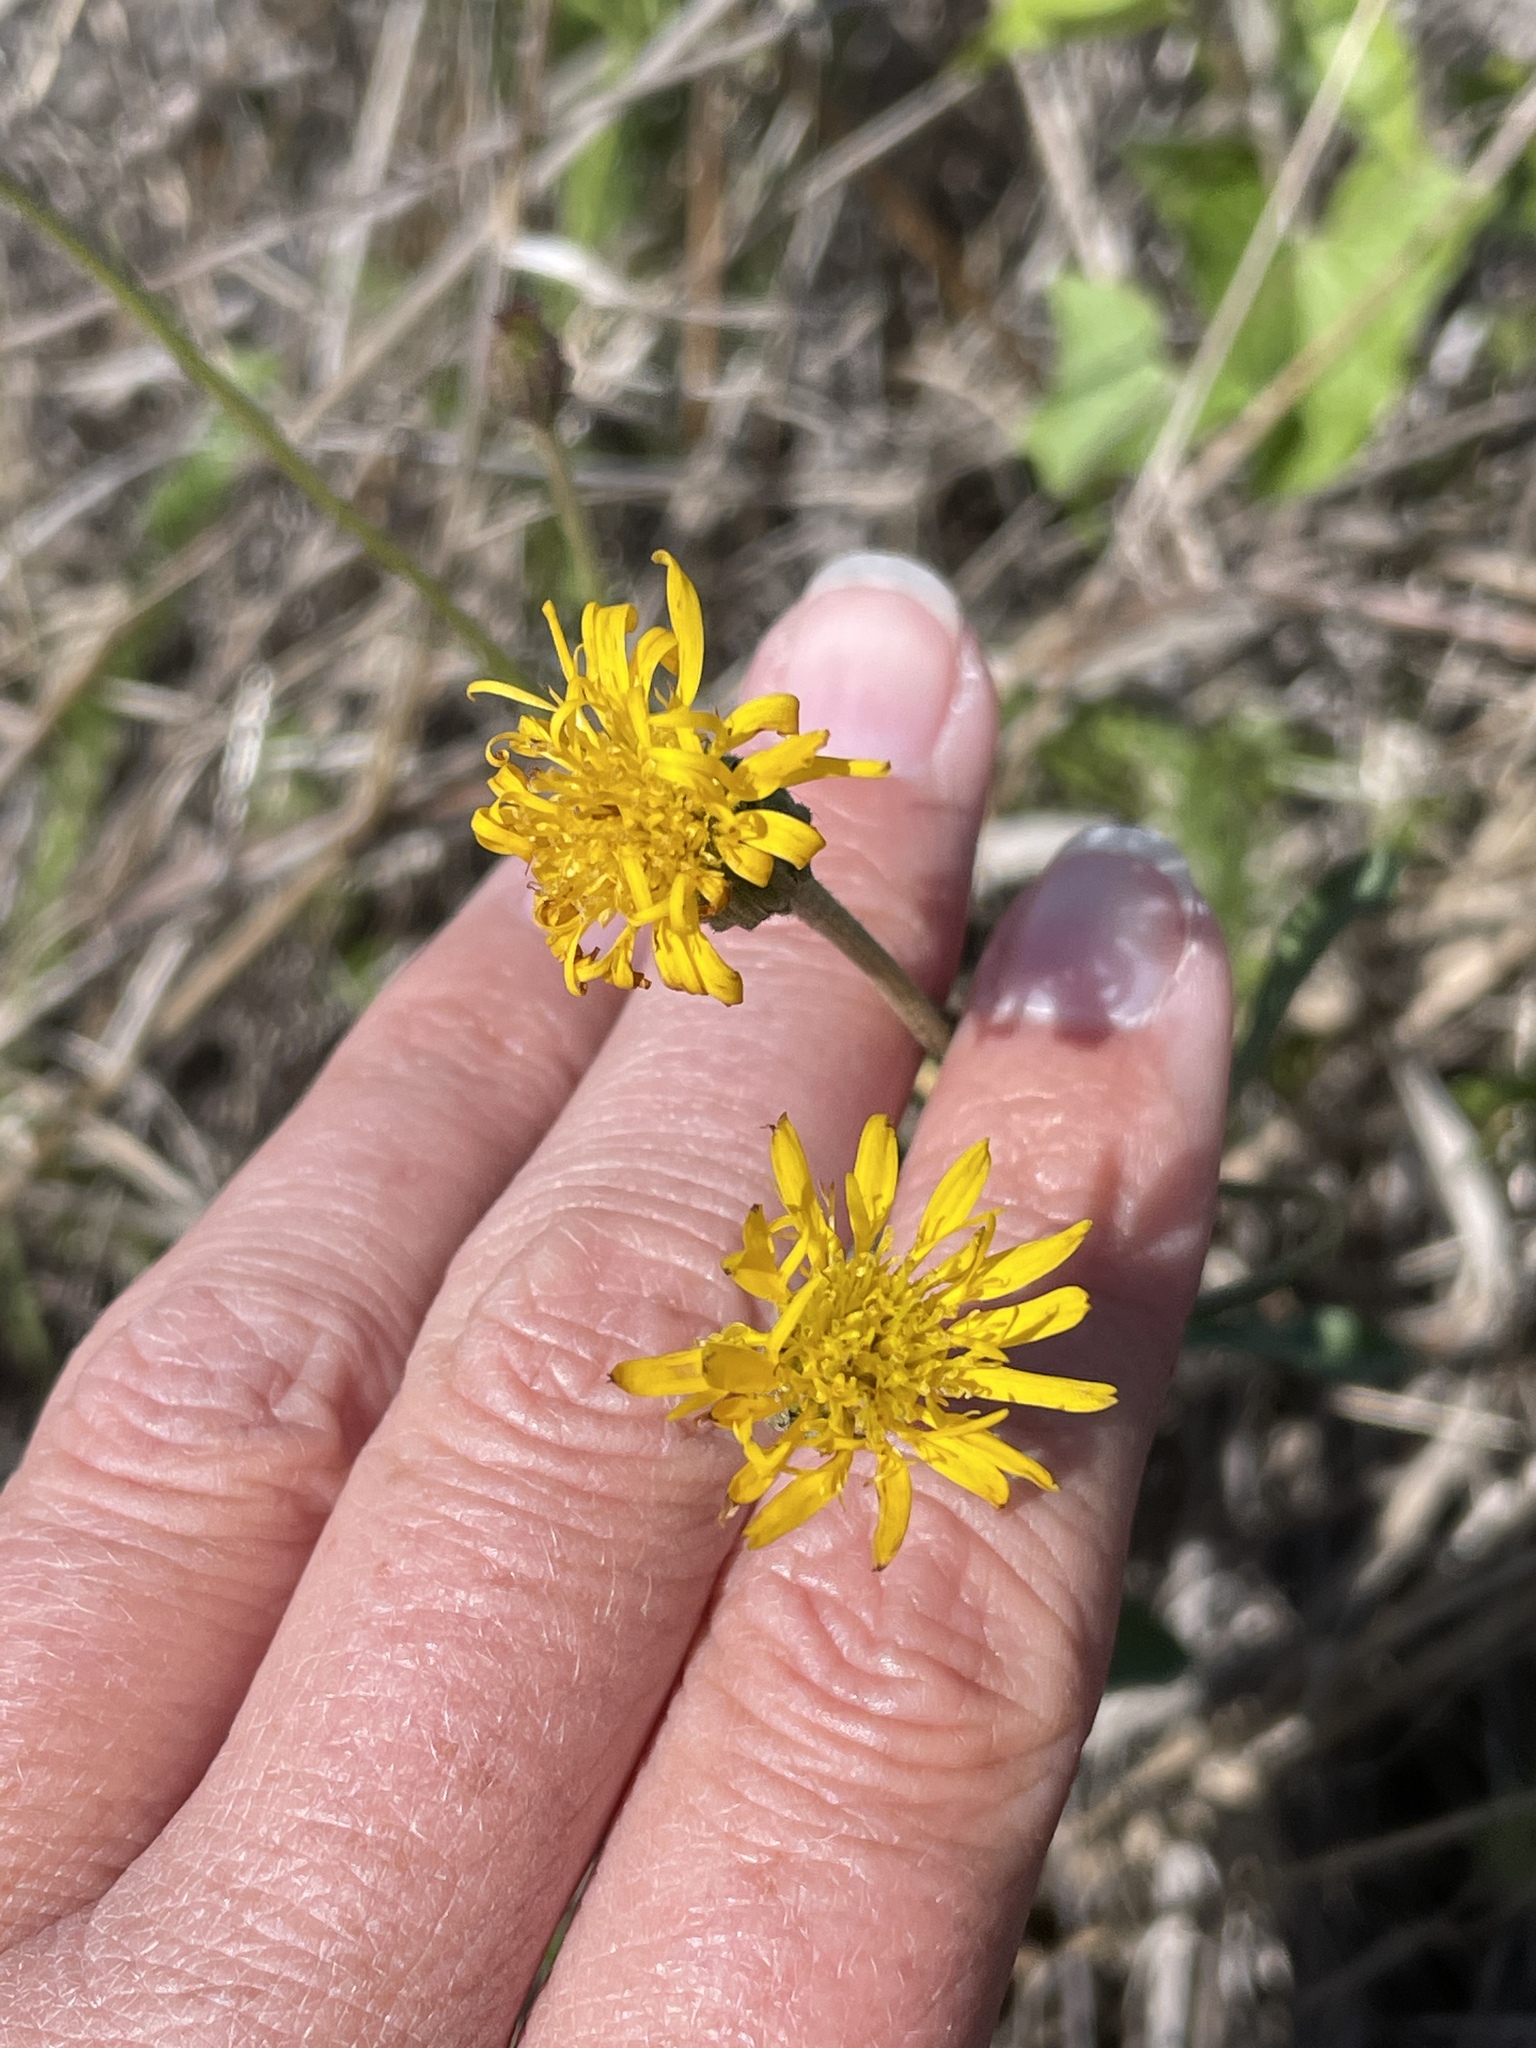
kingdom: Plantae
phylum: Tracheophyta
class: Magnoliopsida
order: Asterales
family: Asteraceae
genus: Heterotheca
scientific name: Heterotheca grandiflora
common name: Telegraphweed
